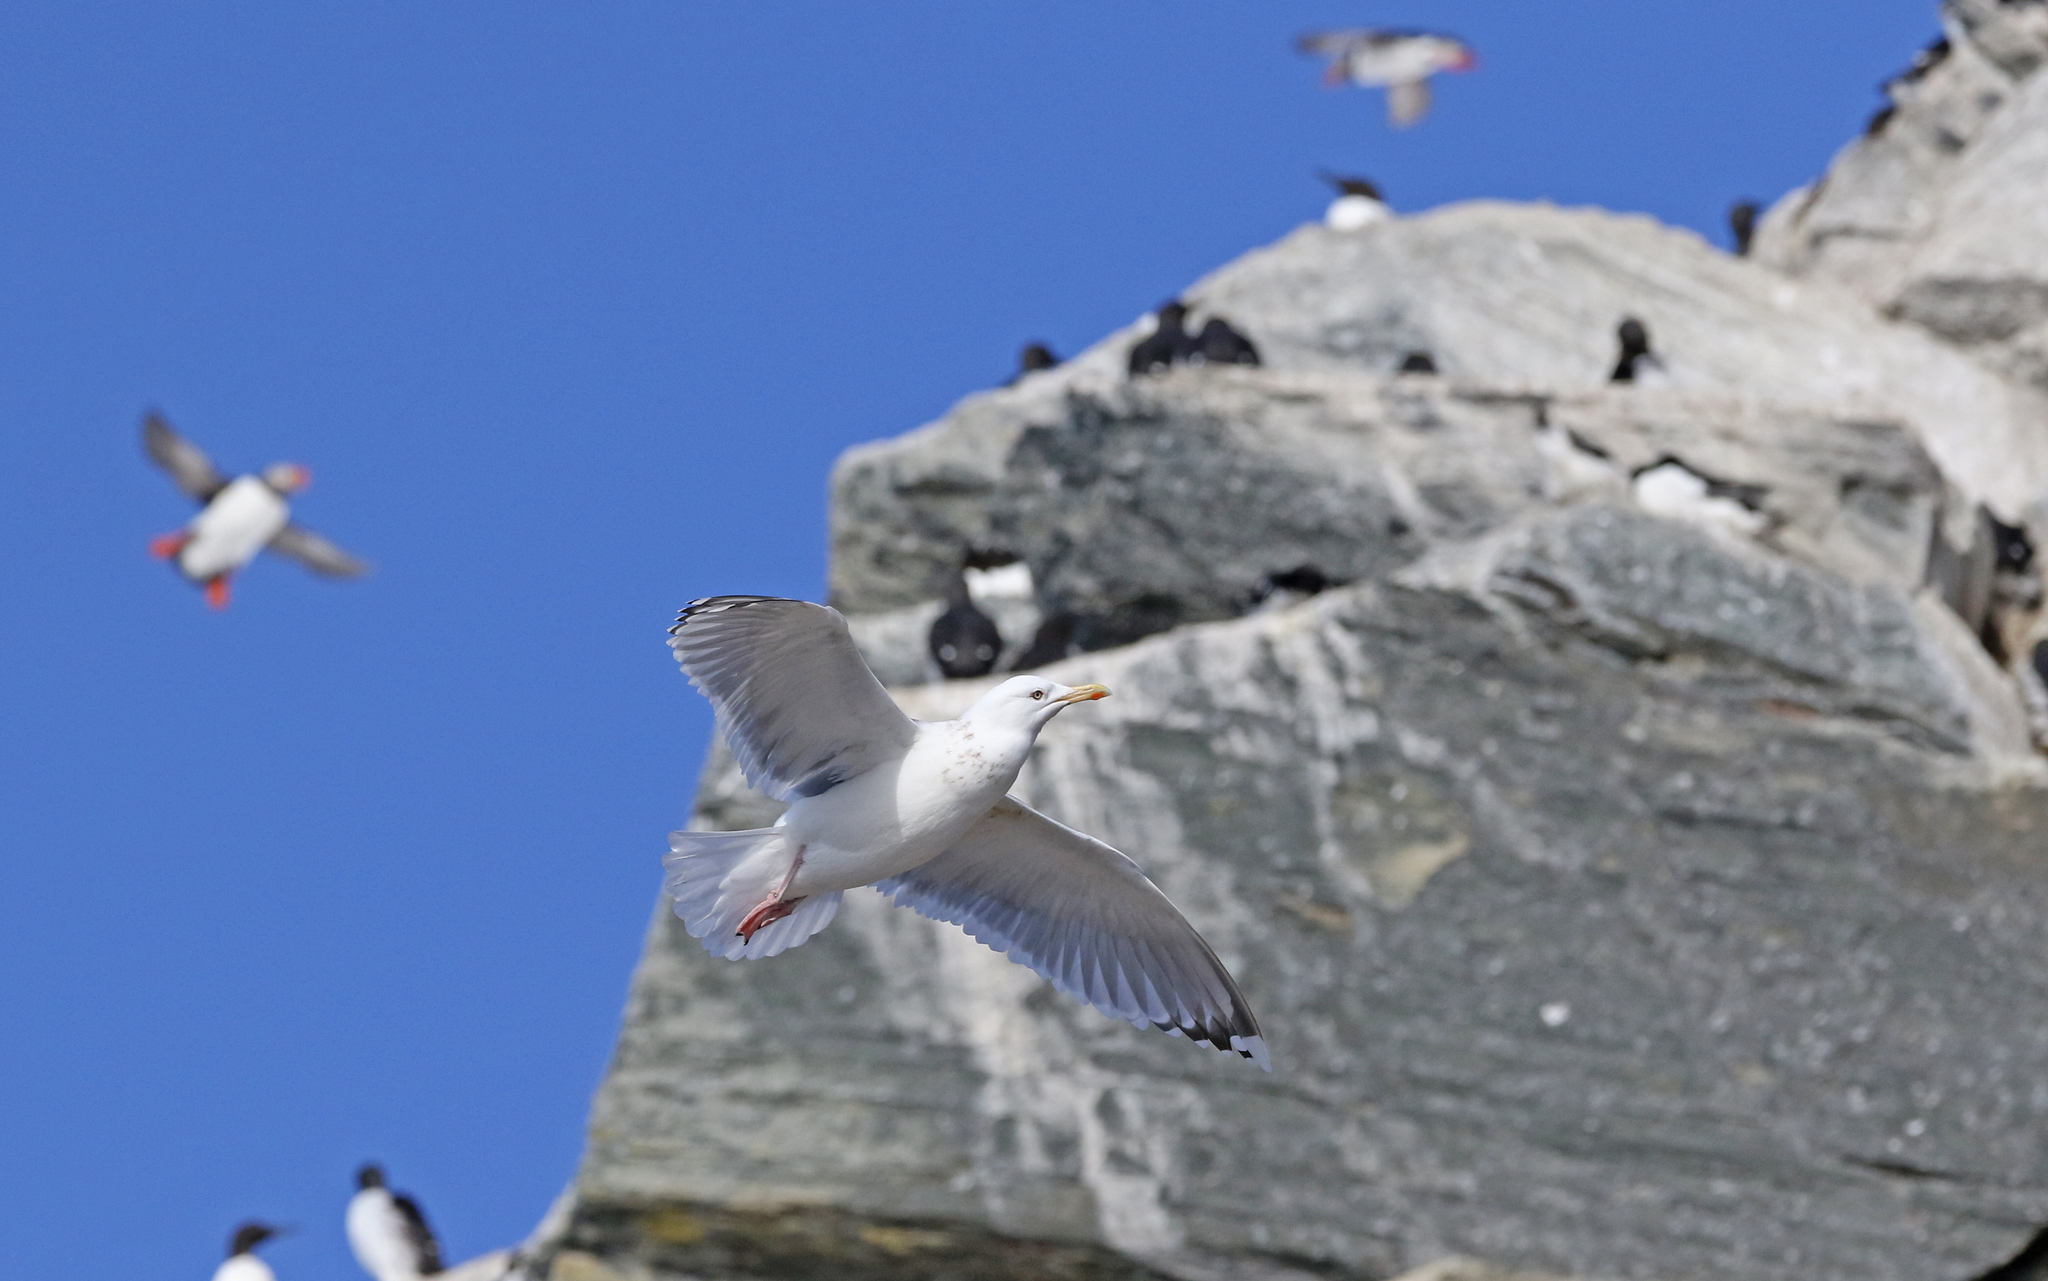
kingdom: Animalia
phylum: Chordata
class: Aves
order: Charadriiformes
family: Laridae
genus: Larus
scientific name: Larus argentatus
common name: Herring gull
